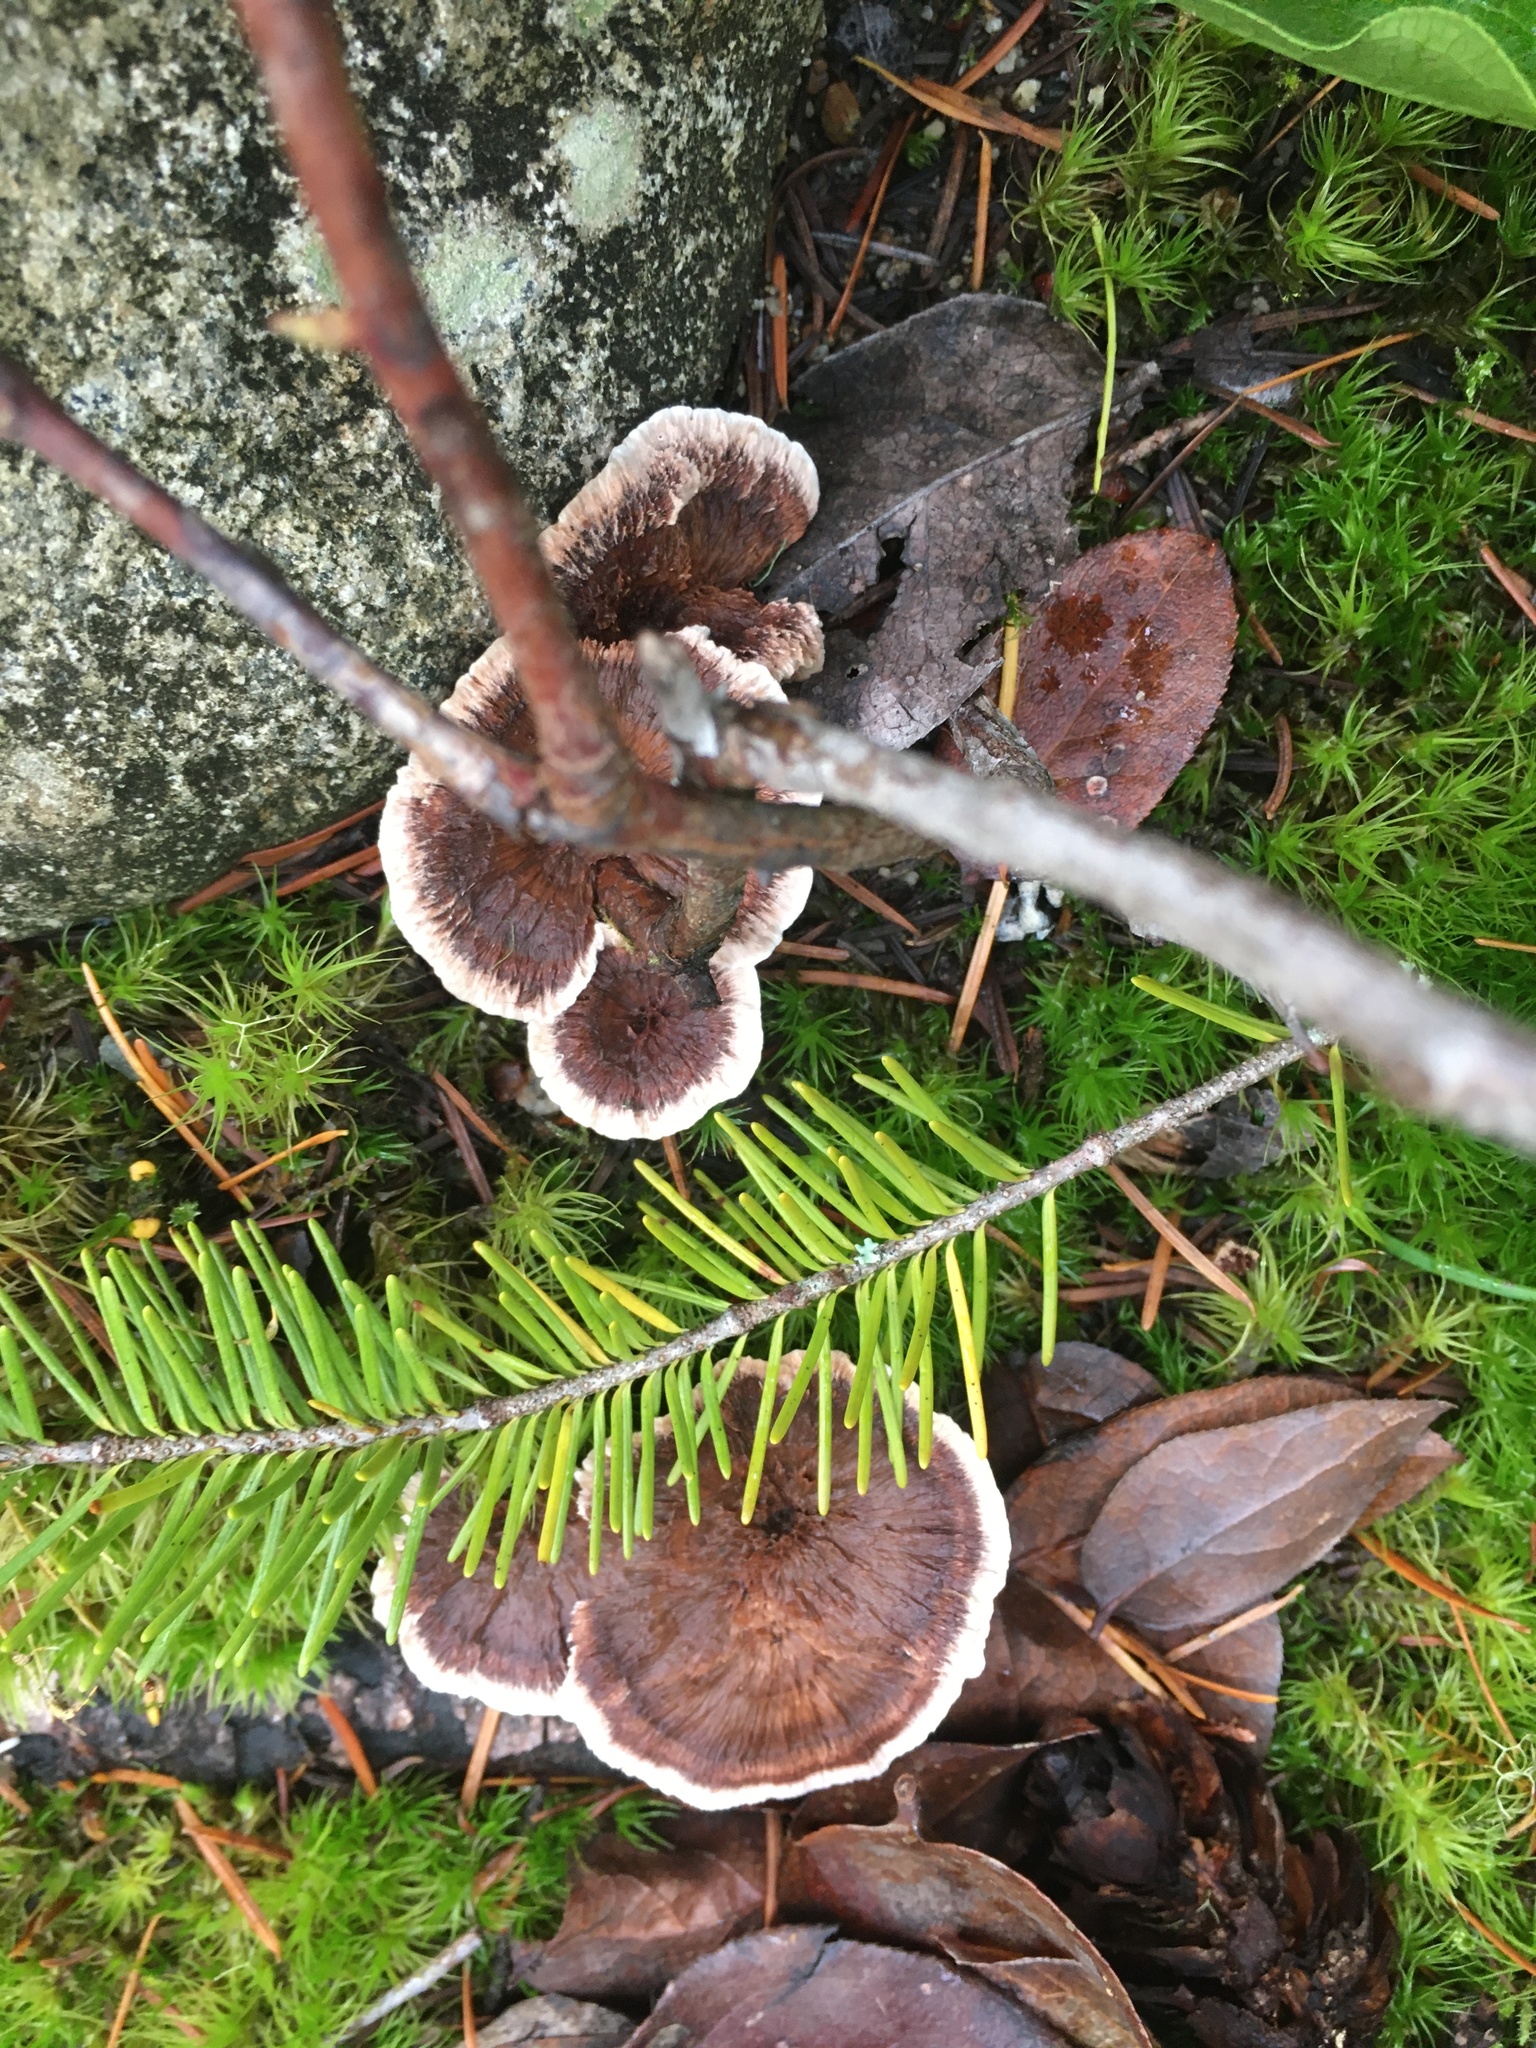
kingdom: Fungi
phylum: Basidiomycota
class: Agaricomycetes
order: Hymenochaetales
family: Hymenochaetaceae
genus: Coltricia
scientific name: Coltricia perennis
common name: Tiger's eye
